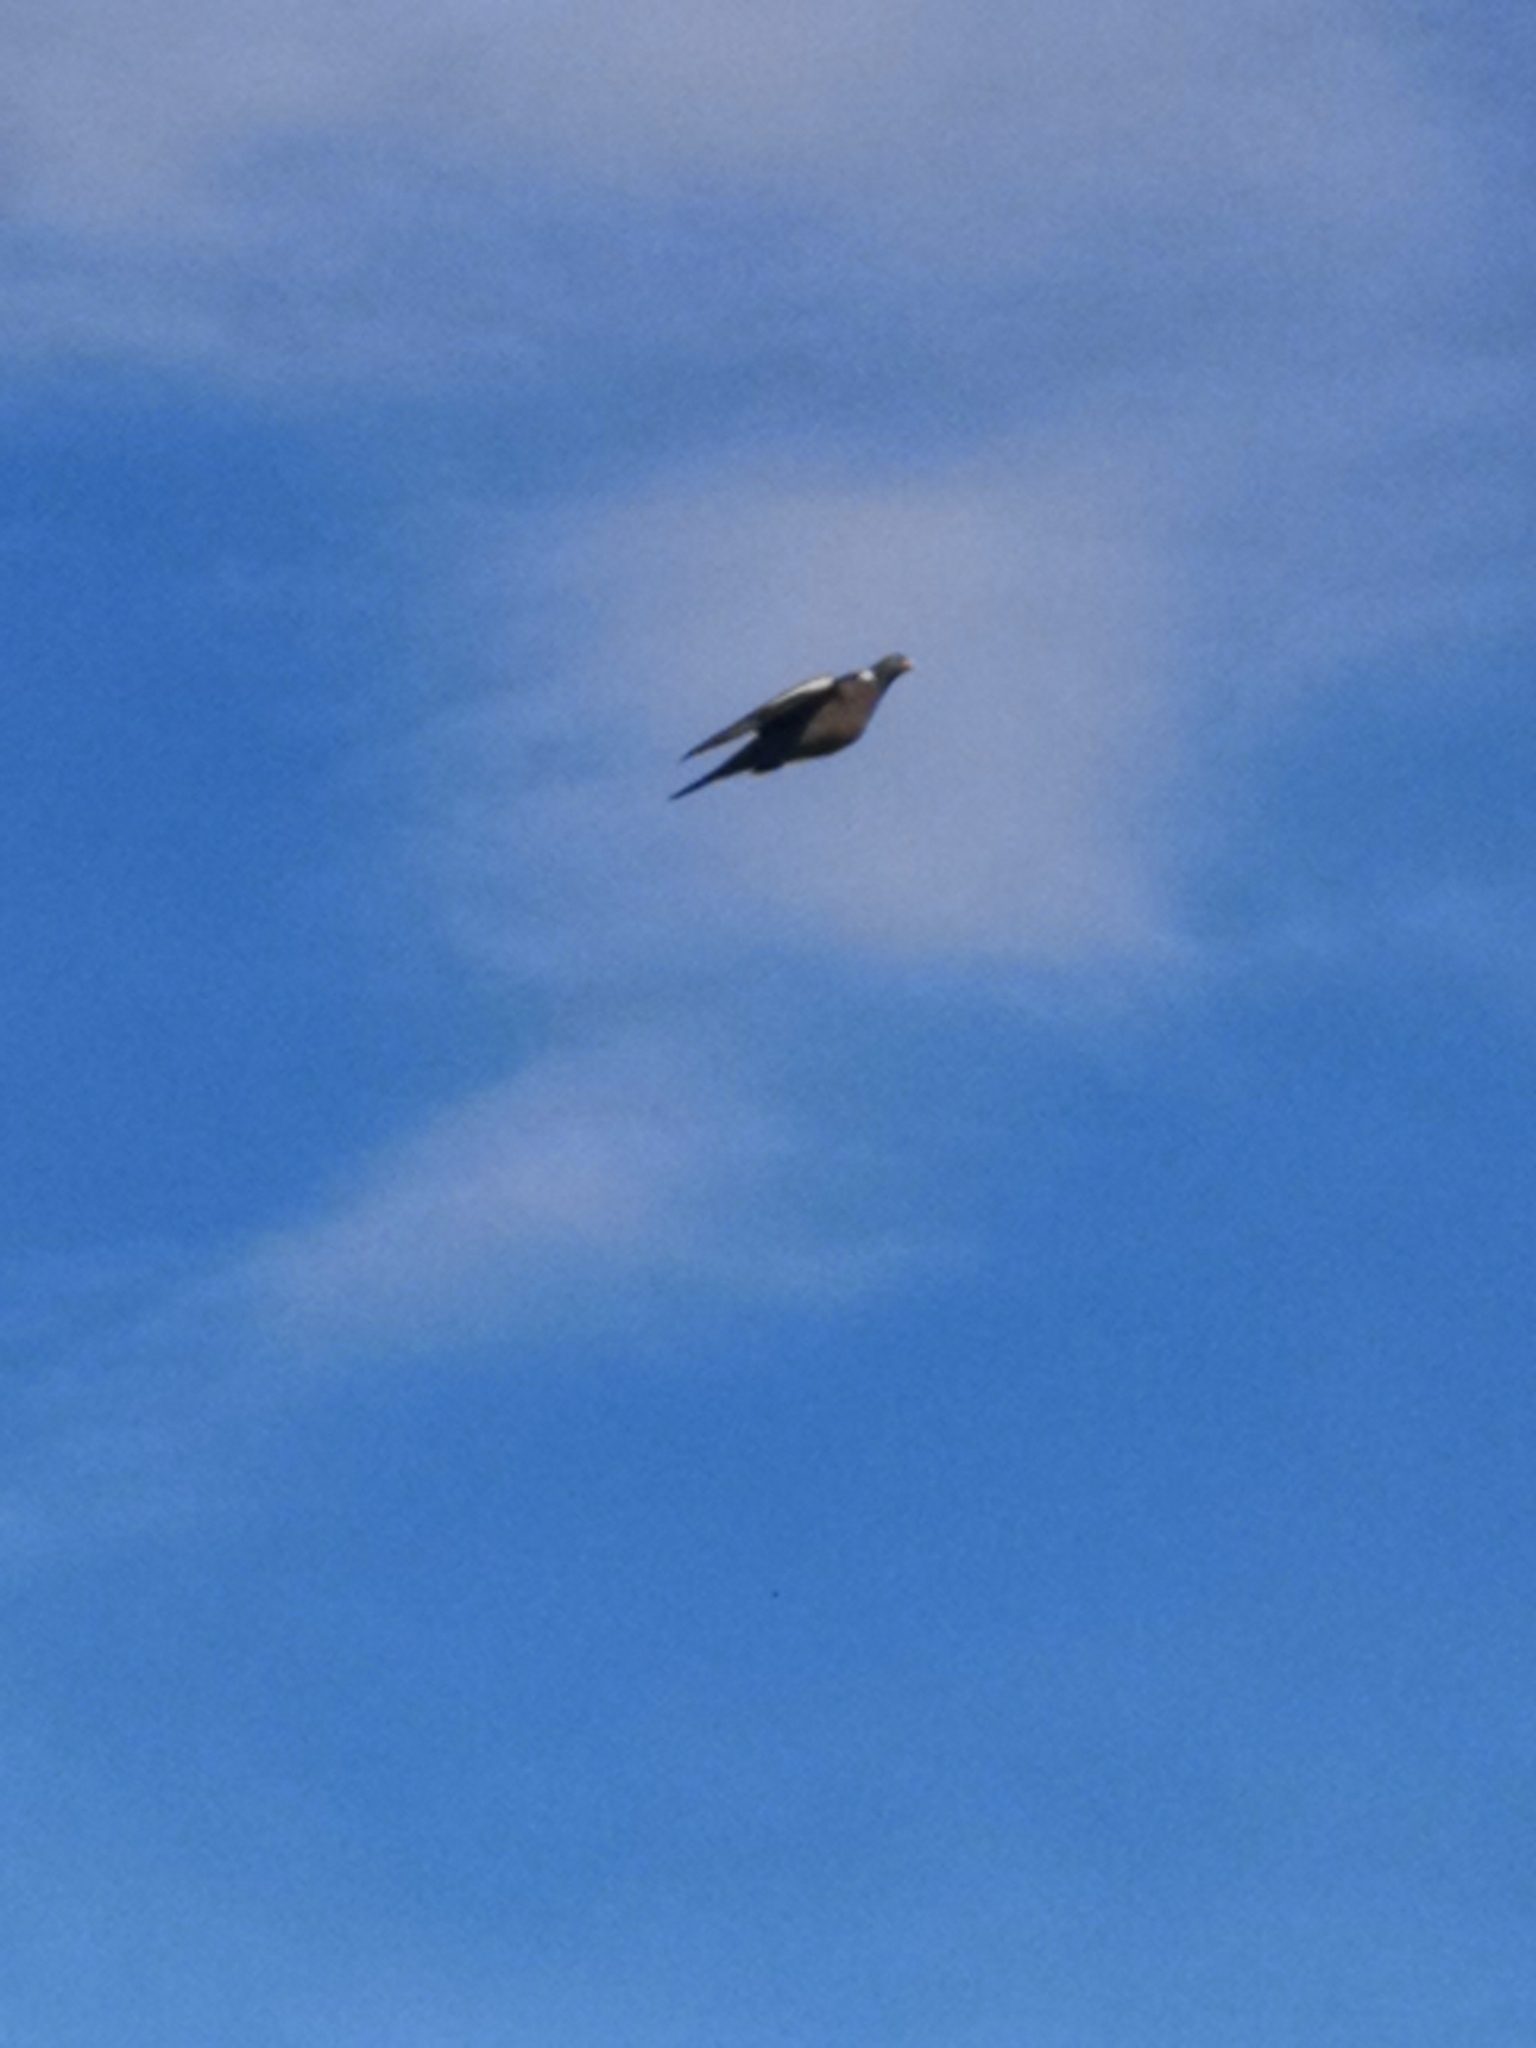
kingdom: Animalia
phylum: Chordata
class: Aves
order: Columbiformes
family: Columbidae
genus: Columba
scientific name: Columba palumbus
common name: Common wood pigeon
